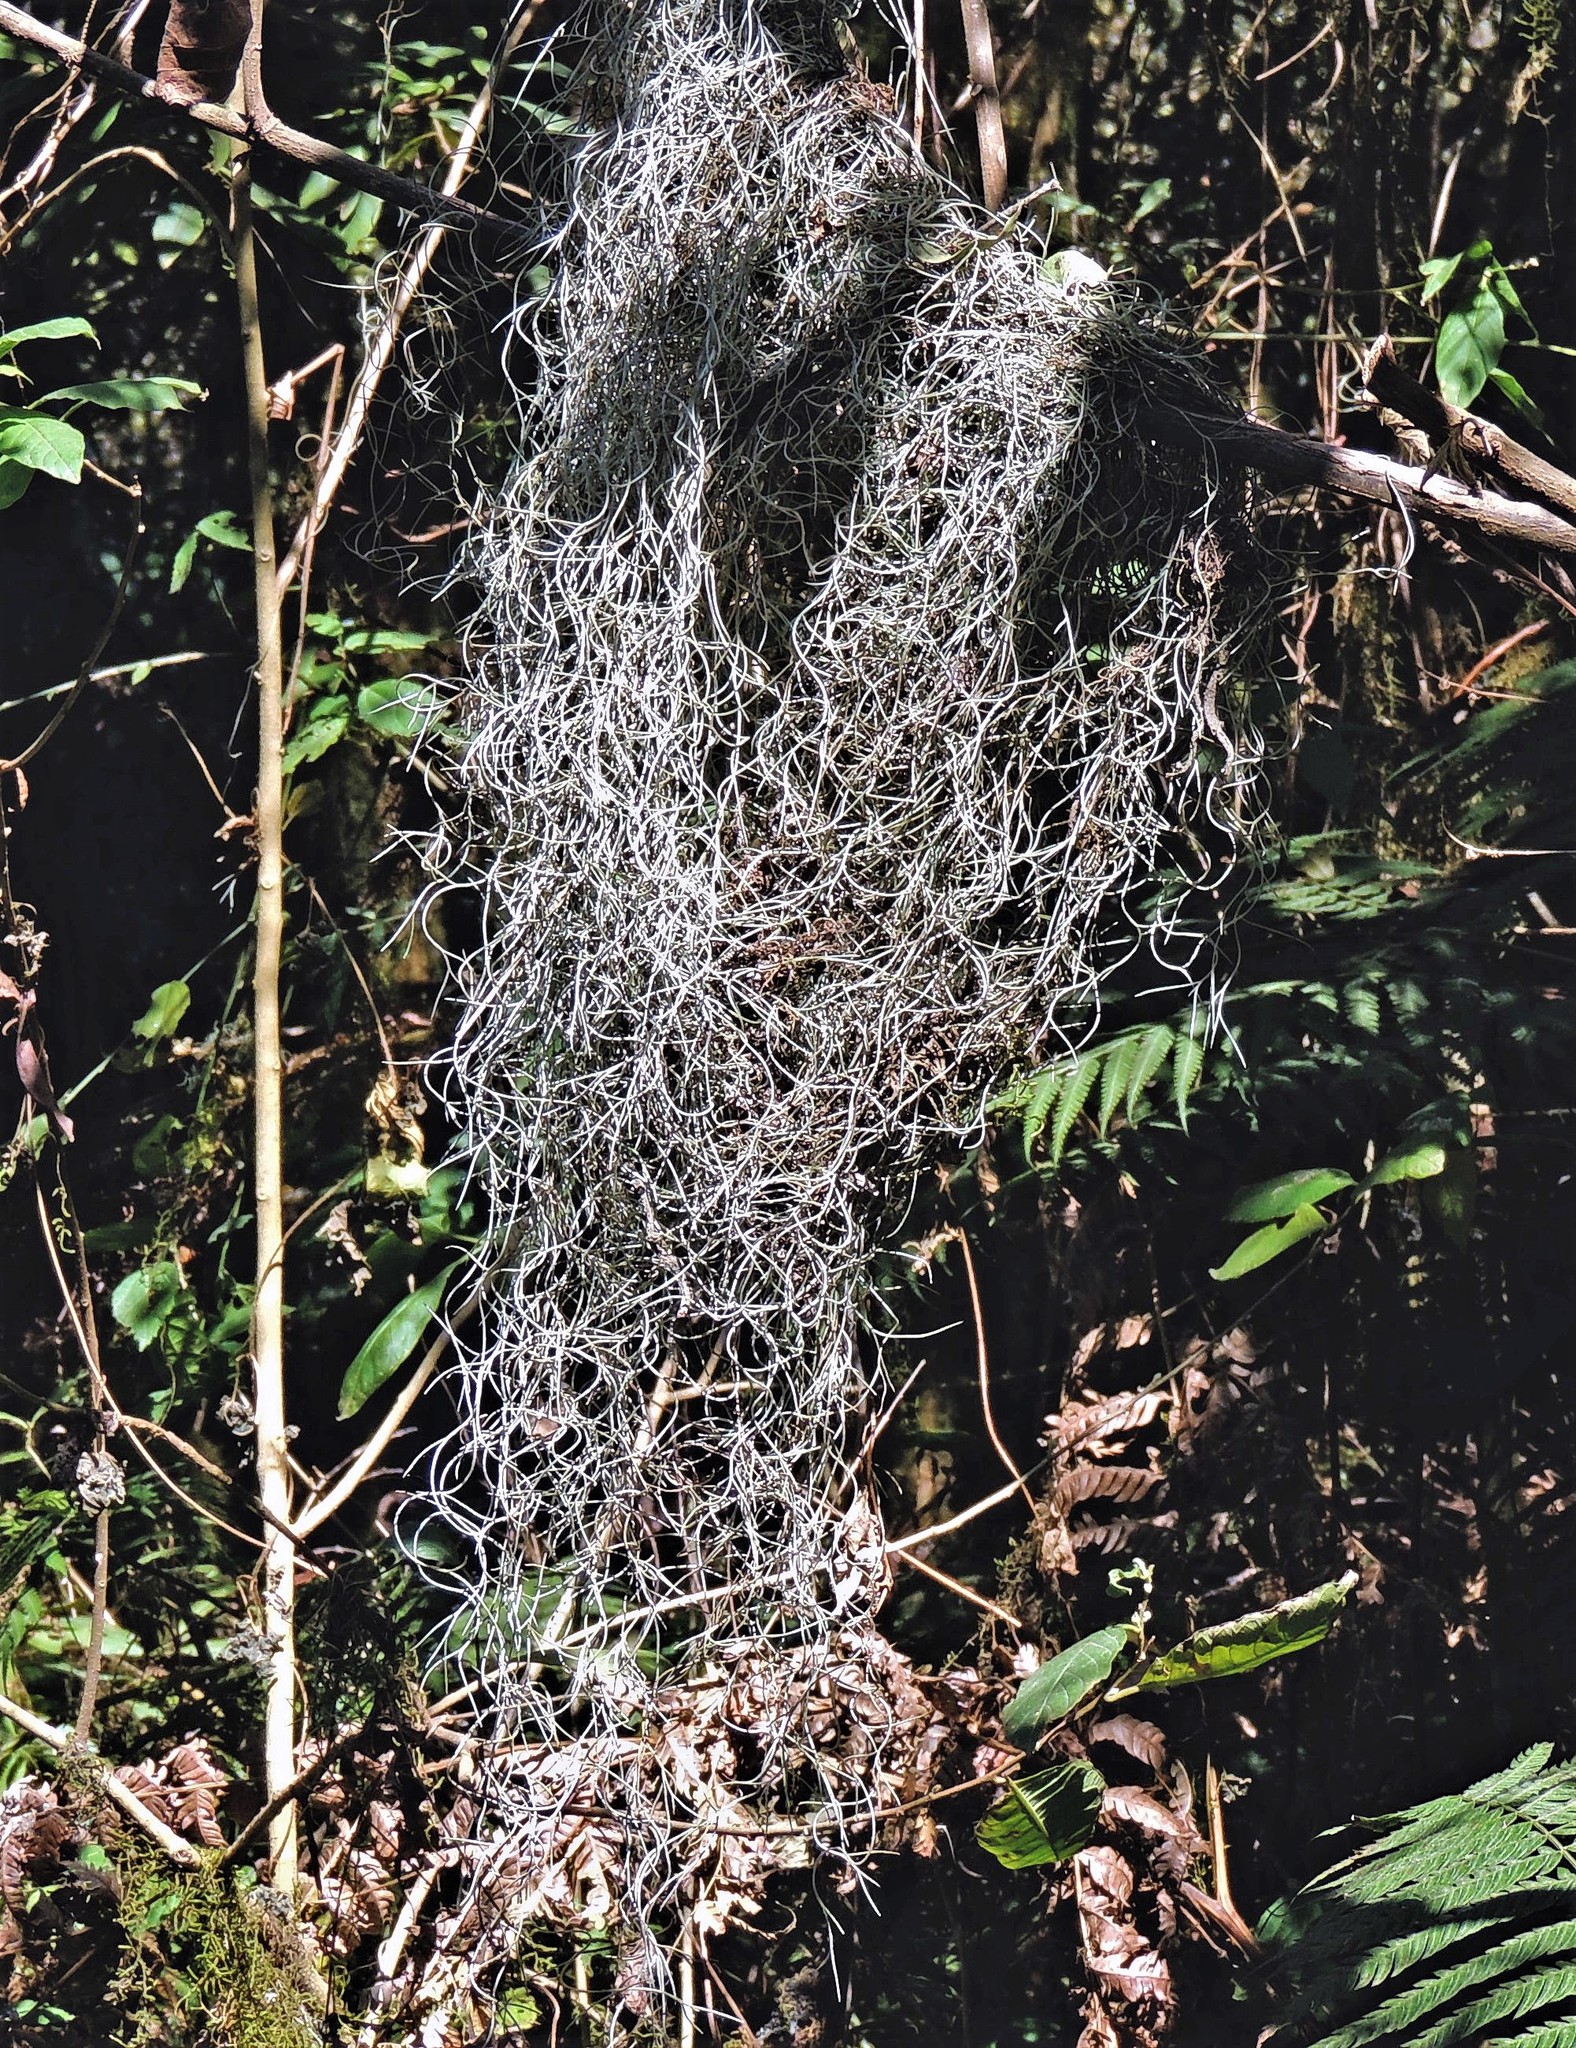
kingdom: Plantae
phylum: Tracheophyta
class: Liliopsida
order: Poales
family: Bromeliaceae
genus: Tillandsia
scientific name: Tillandsia usneoides
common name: Spanish moss
